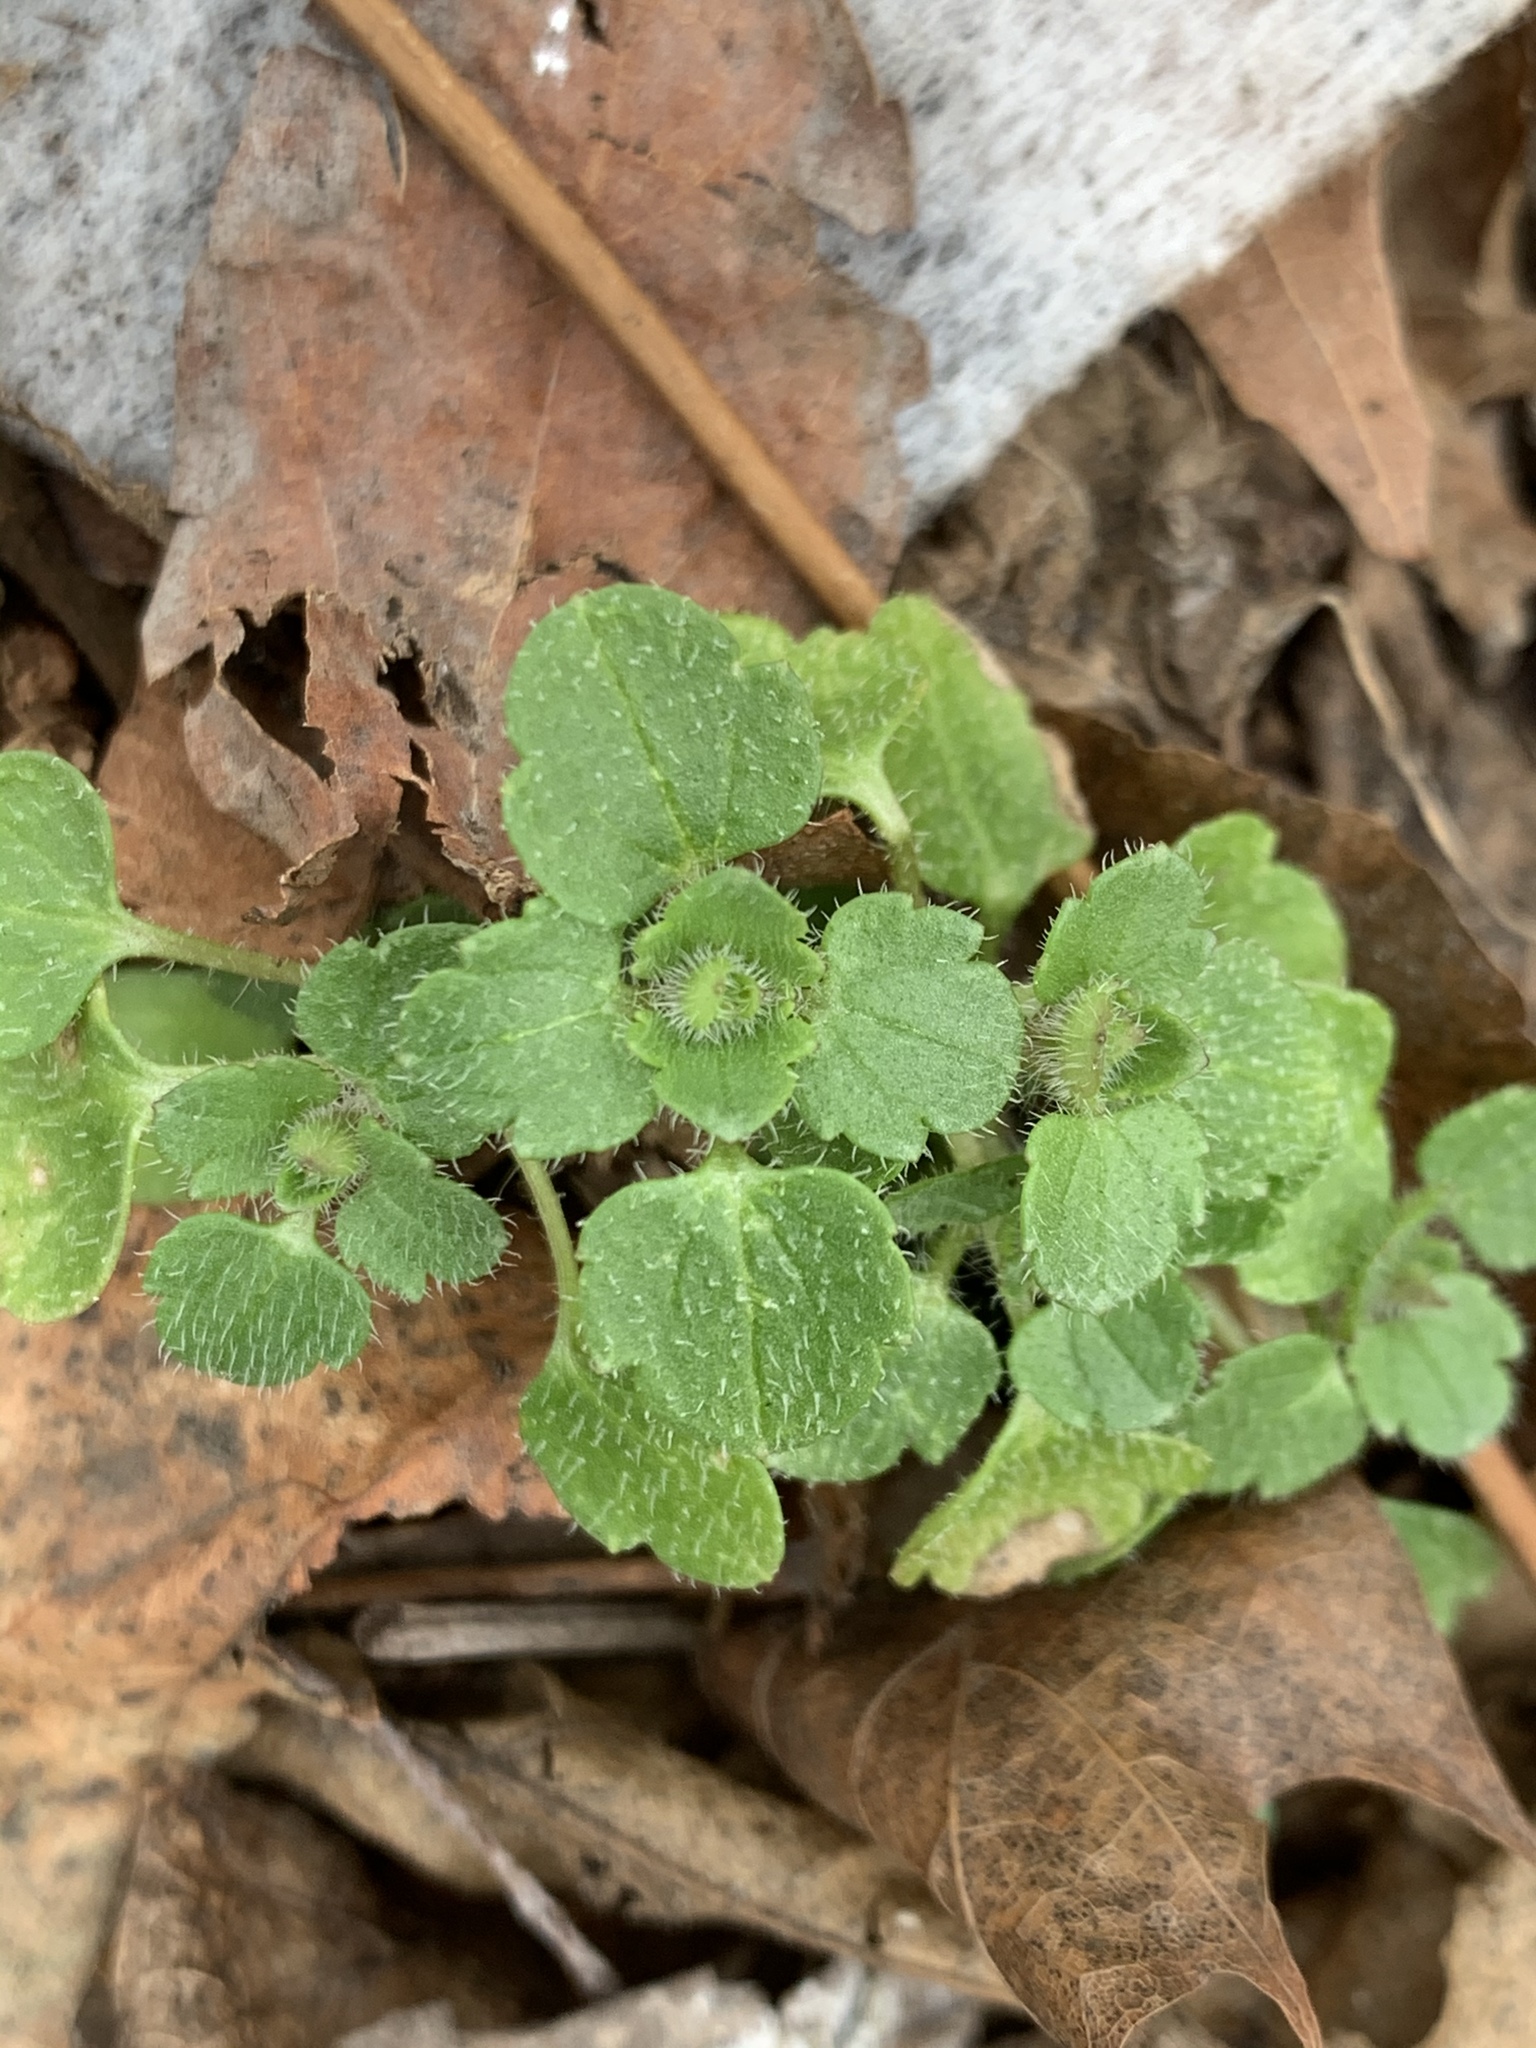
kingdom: Plantae
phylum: Tracheophyta
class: Magnoliopsida
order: Lamiales
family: Plantaginaceae
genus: Veronica
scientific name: Veronica hederifolia
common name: Ivy-leaved speedwell
